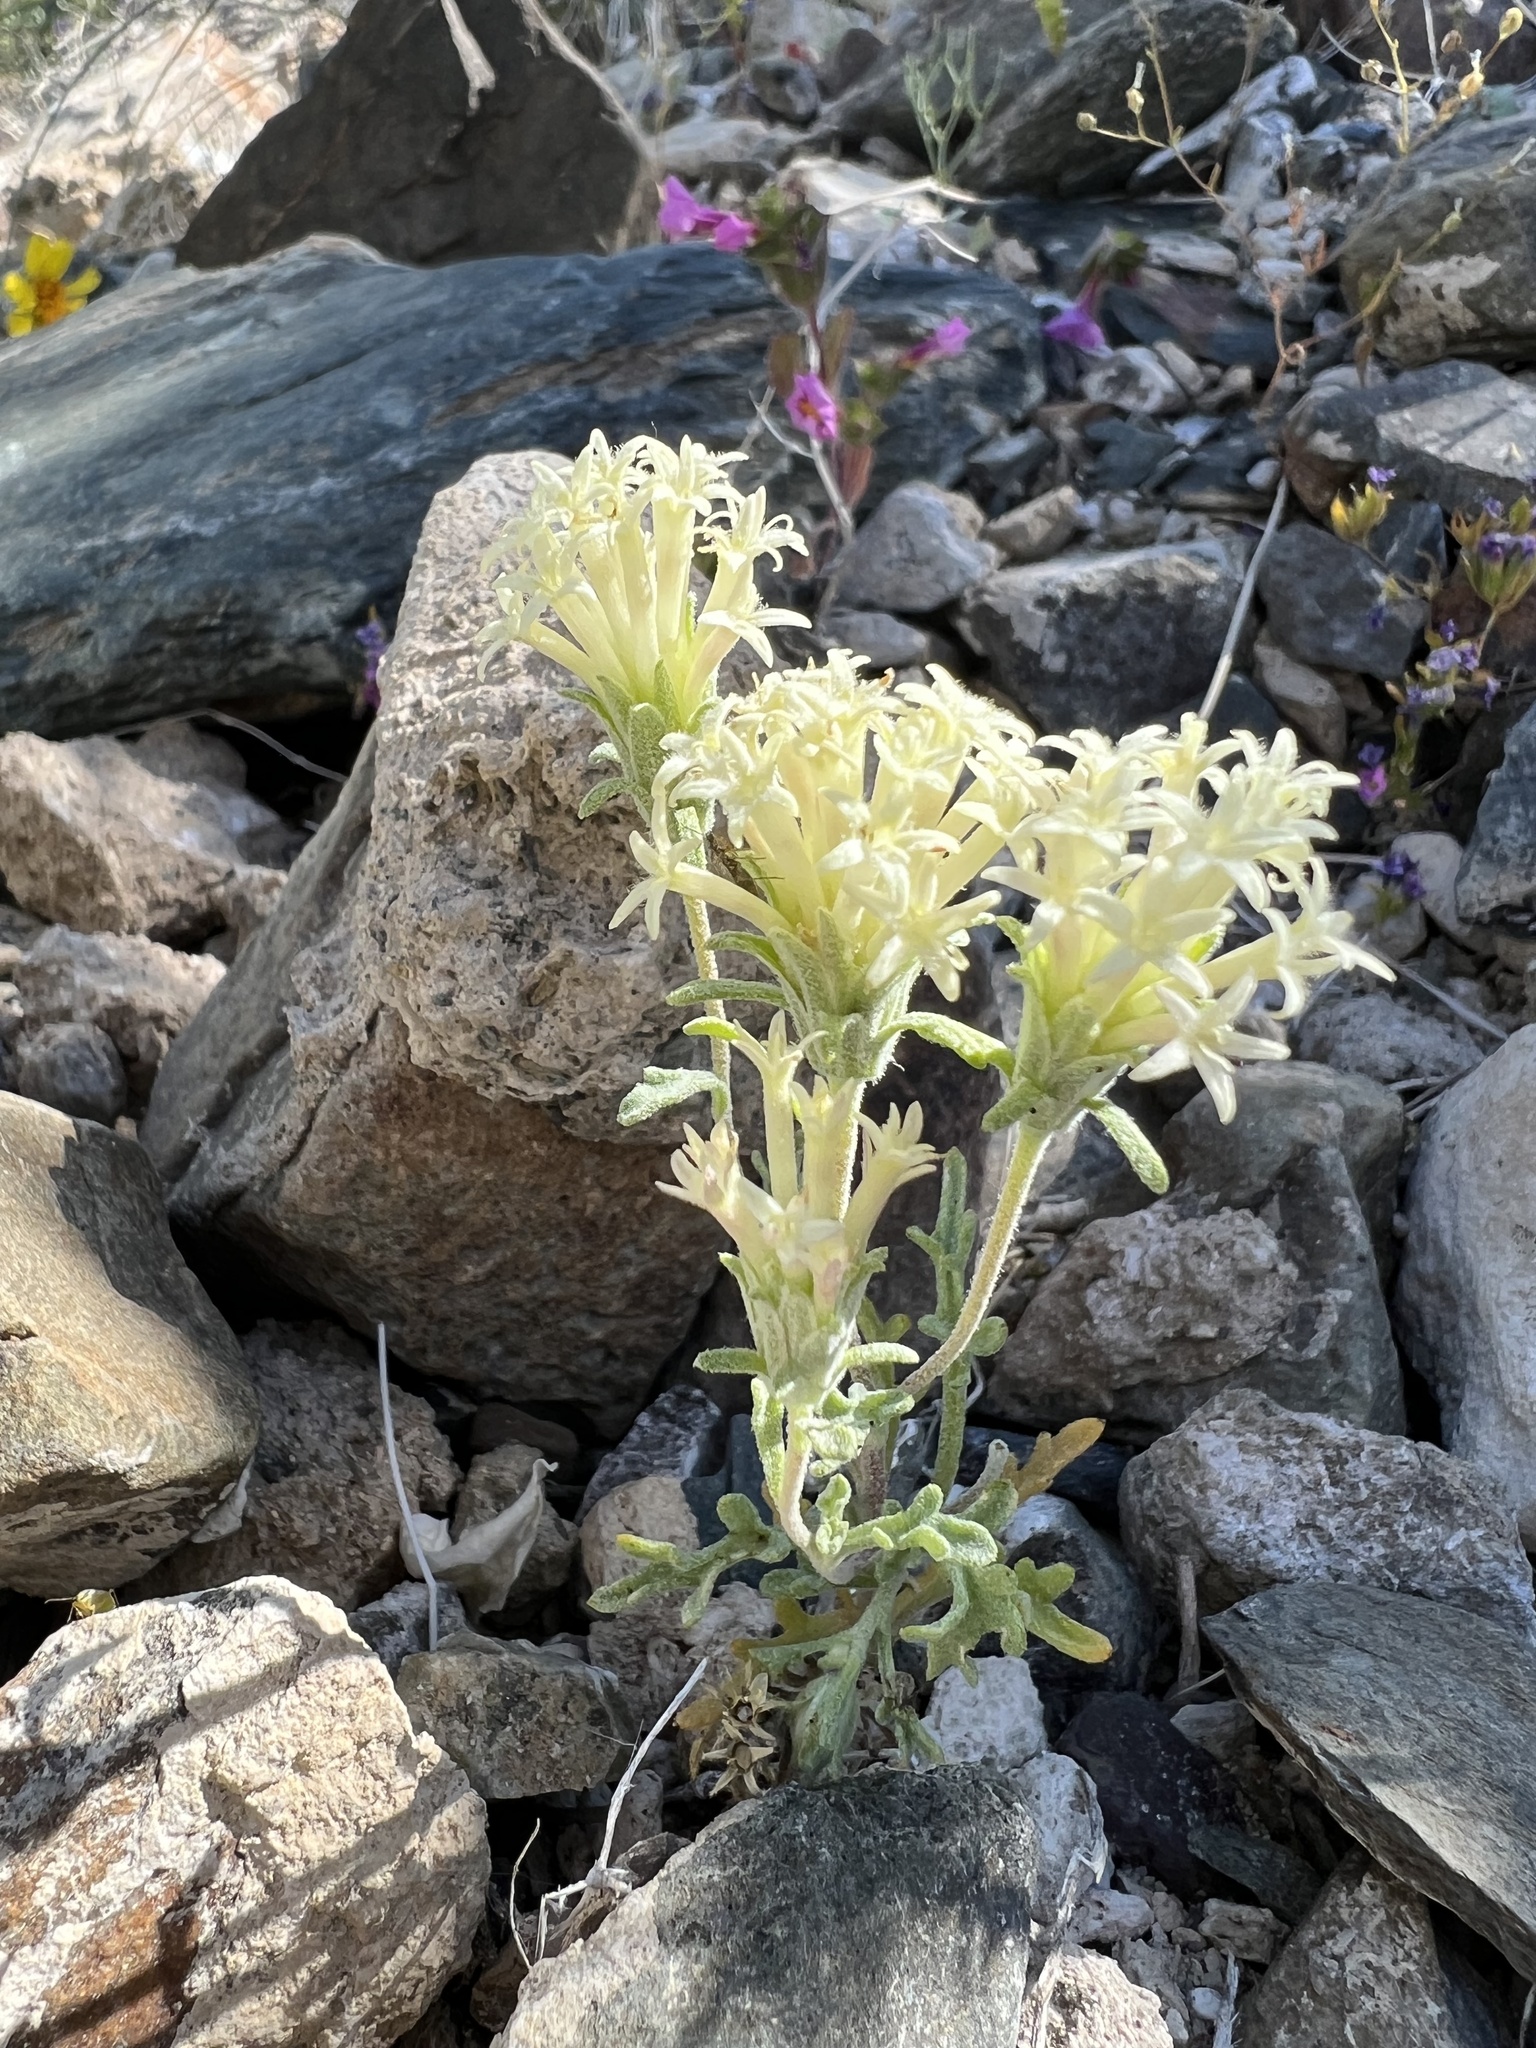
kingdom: Plantae
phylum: Tracheophyta
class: Magnoliopsida
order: Asterales
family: Asteraceae
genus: Chaenactis
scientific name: Chaenactis macrantha
